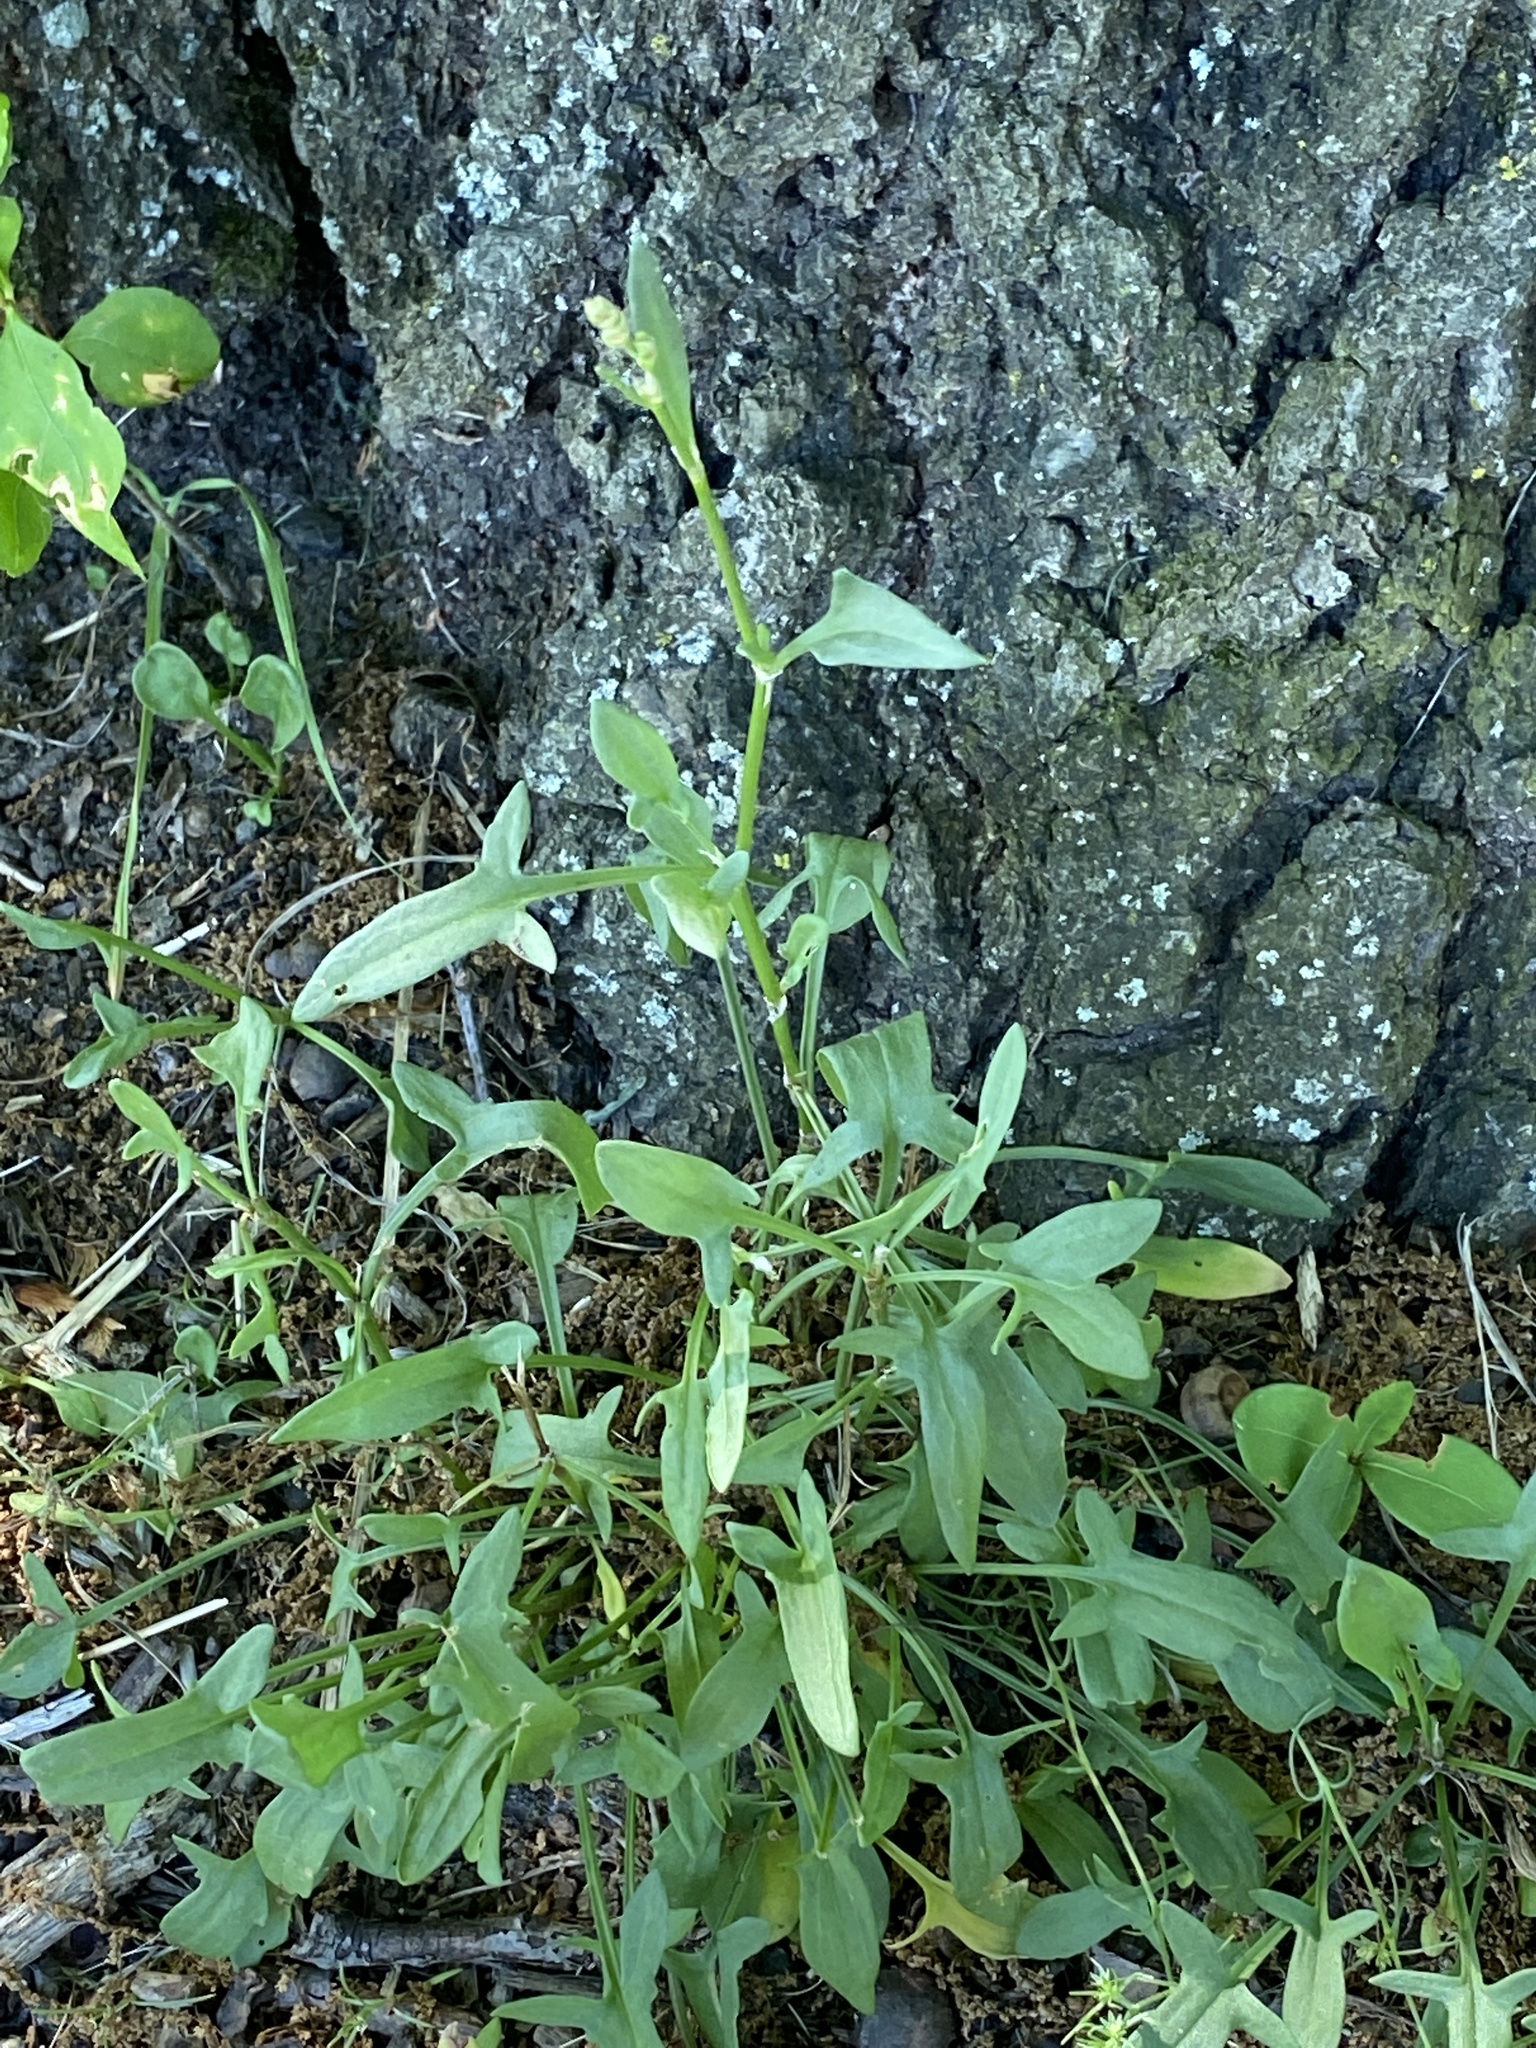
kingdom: Plantae
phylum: Tracheophyta
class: Magnoliopsida
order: Caryophyllales
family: Polygonaceae
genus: Rumex
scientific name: Rumex acetosella
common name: Common sheep sorrel
